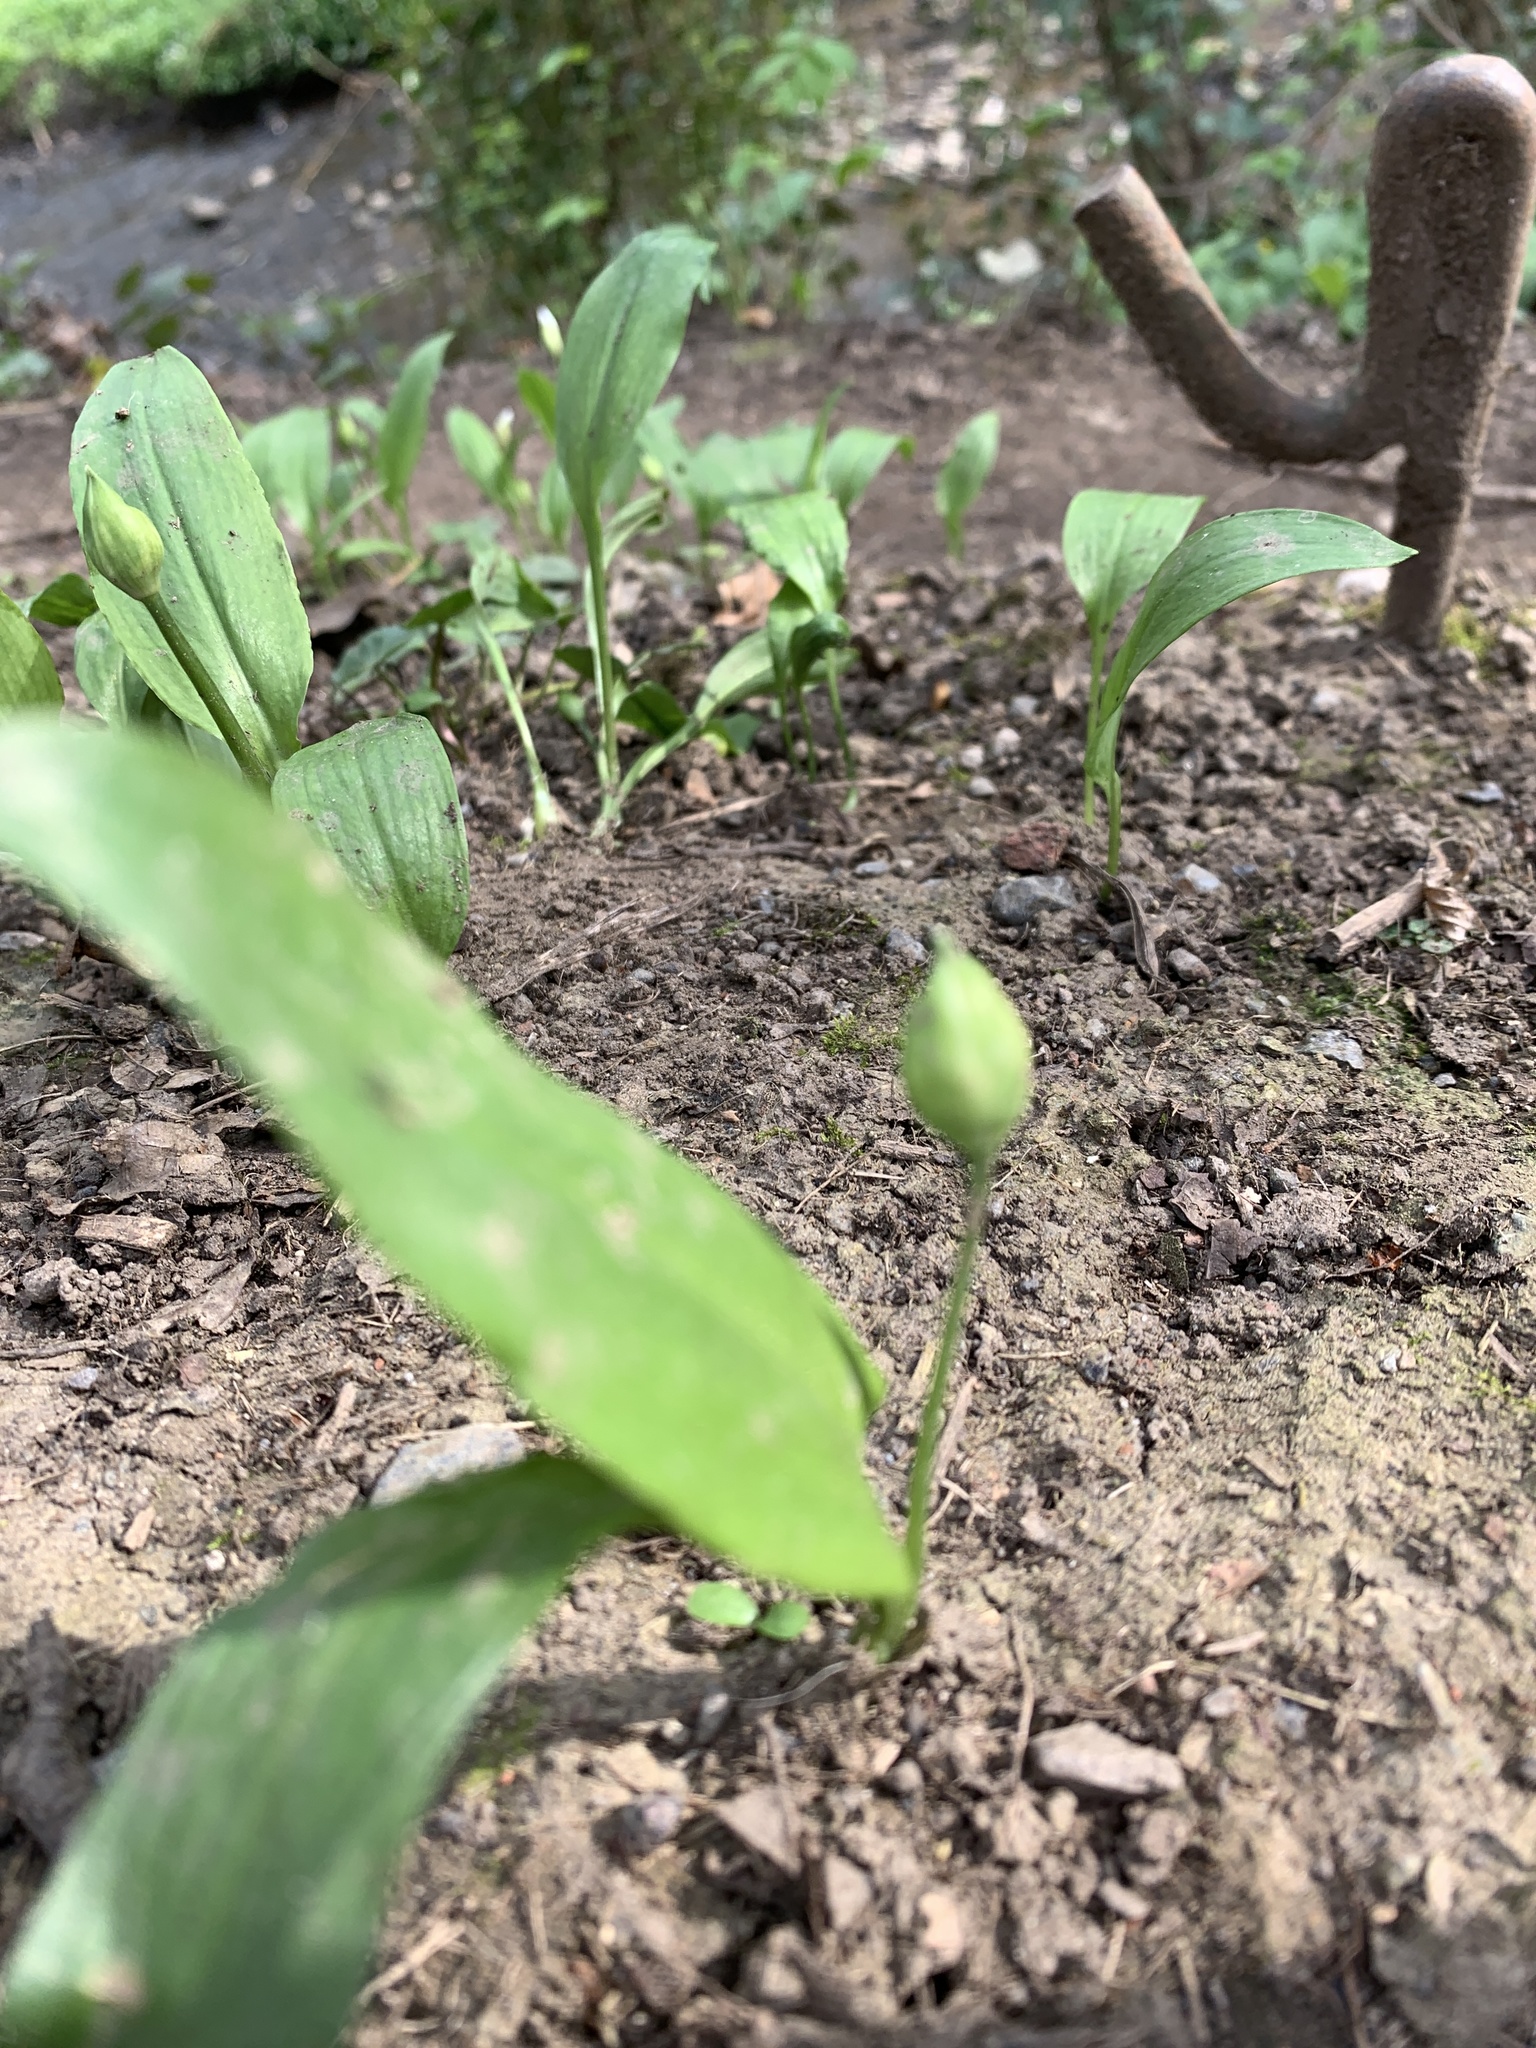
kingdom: Plantae
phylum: Tracheophyta
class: Liliopsida
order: Asparagales
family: Amaryllidaceae
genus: Allium
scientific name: Allium ursinum
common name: Ramsons
